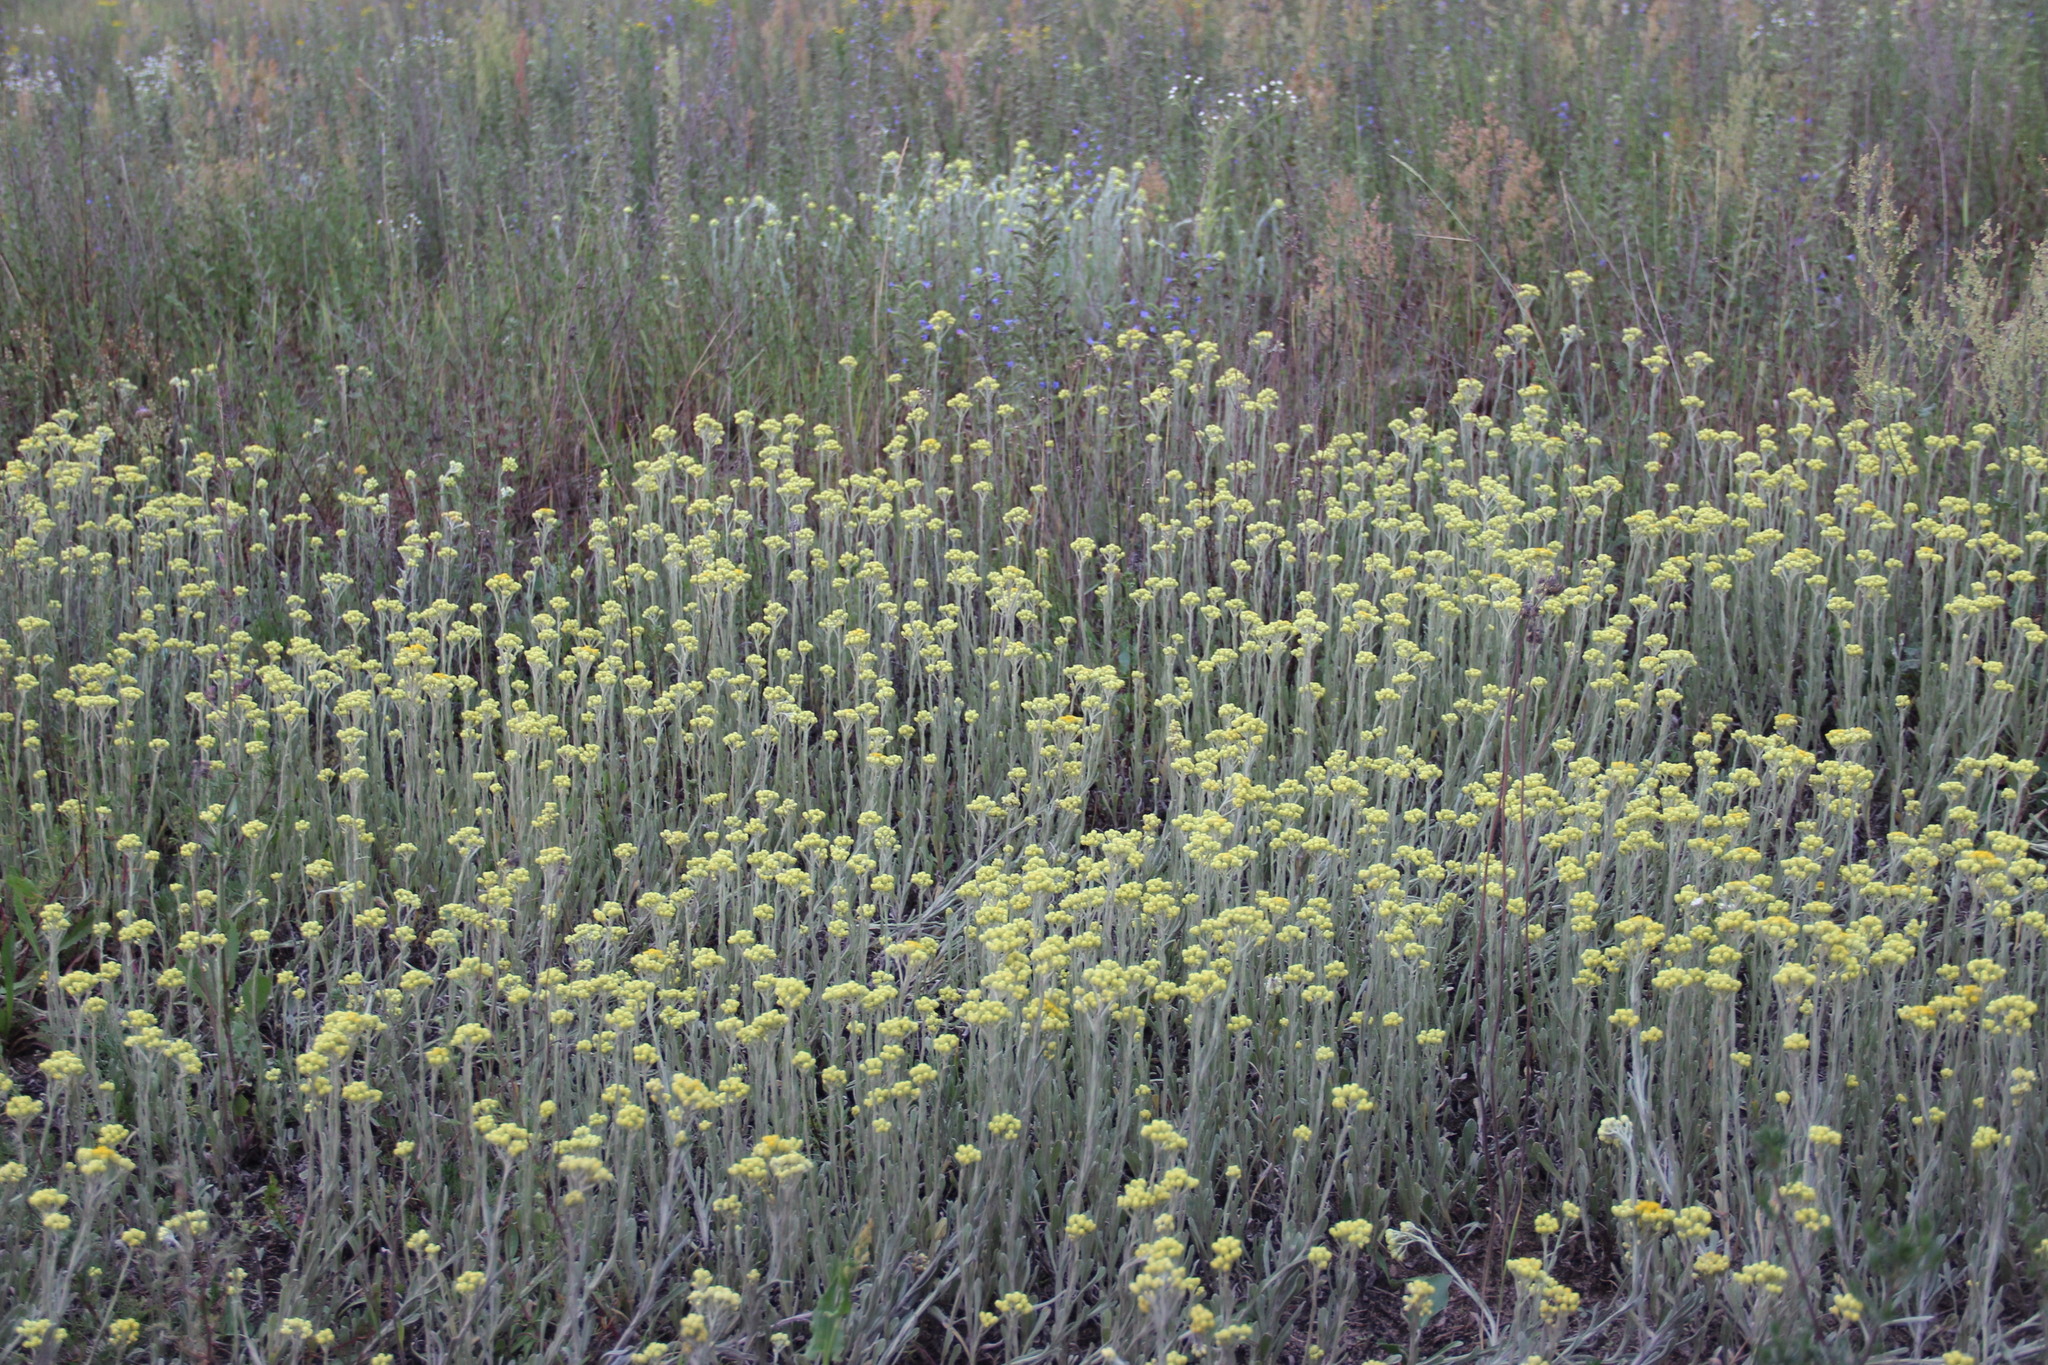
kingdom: Plantae
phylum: Tracheophyta
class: Magnoliopsida
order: Asterales
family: Asteraceae
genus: Helichrysum
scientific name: Helichrysum arenarium
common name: Strawflower
